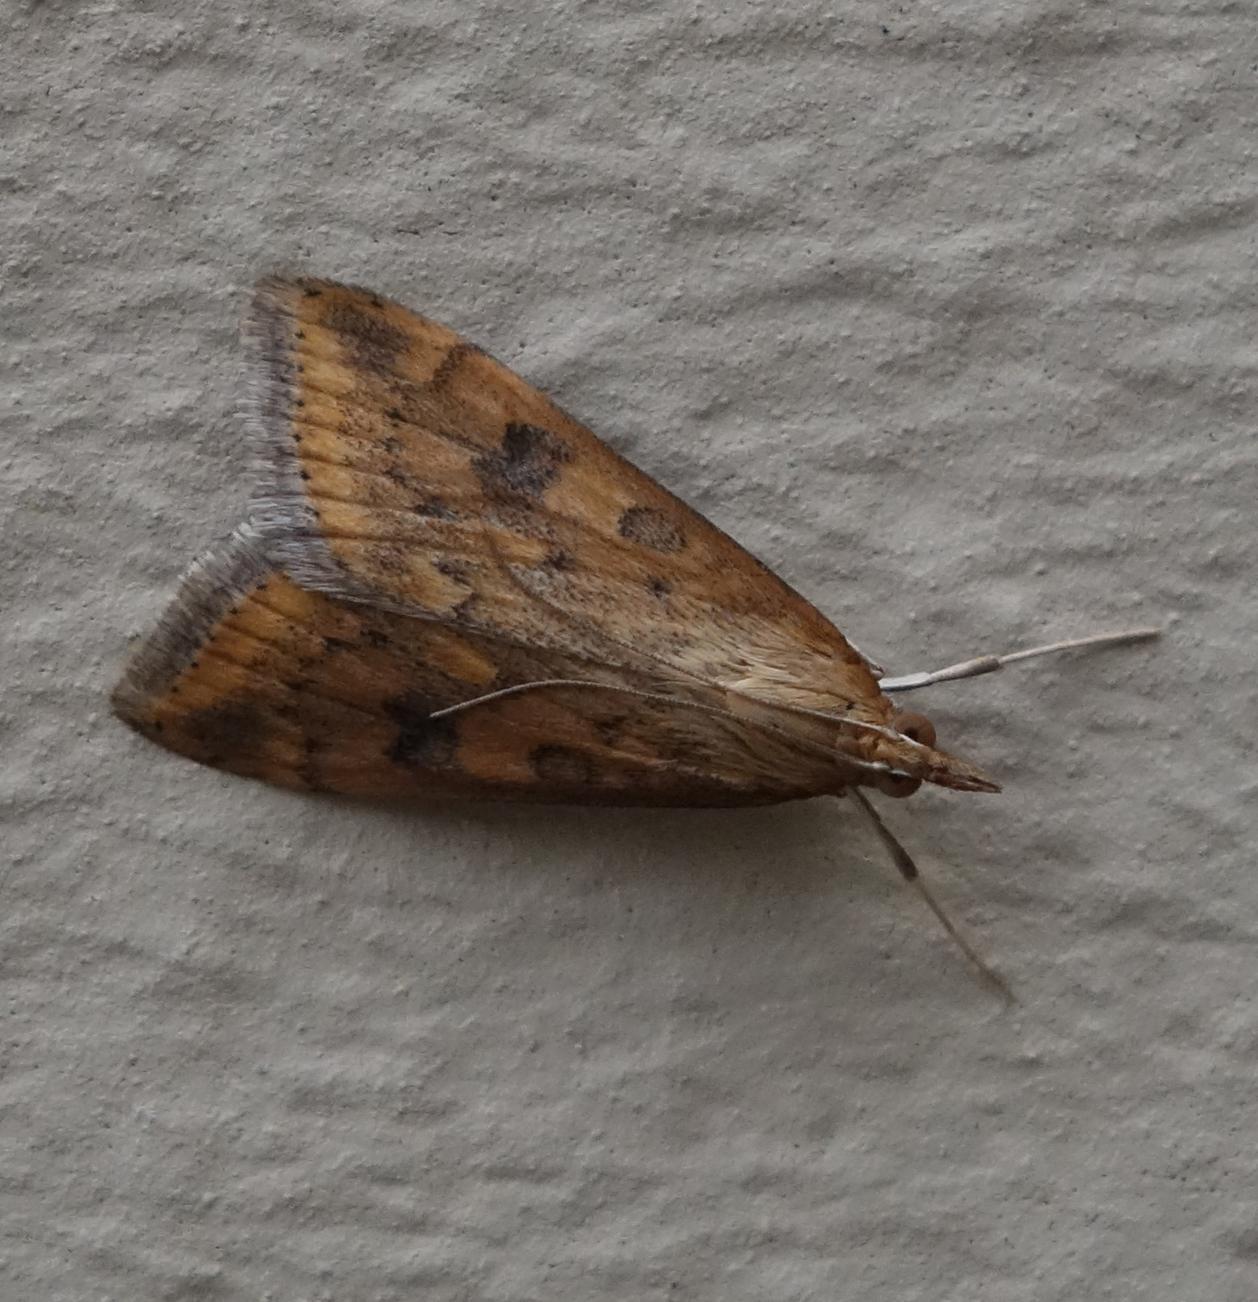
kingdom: Animalia
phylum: Arthropoda
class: Insecta
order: Lepidoptera
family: Crambidae
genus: Udea
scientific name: Udea ferrugalis
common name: Rusty dot
